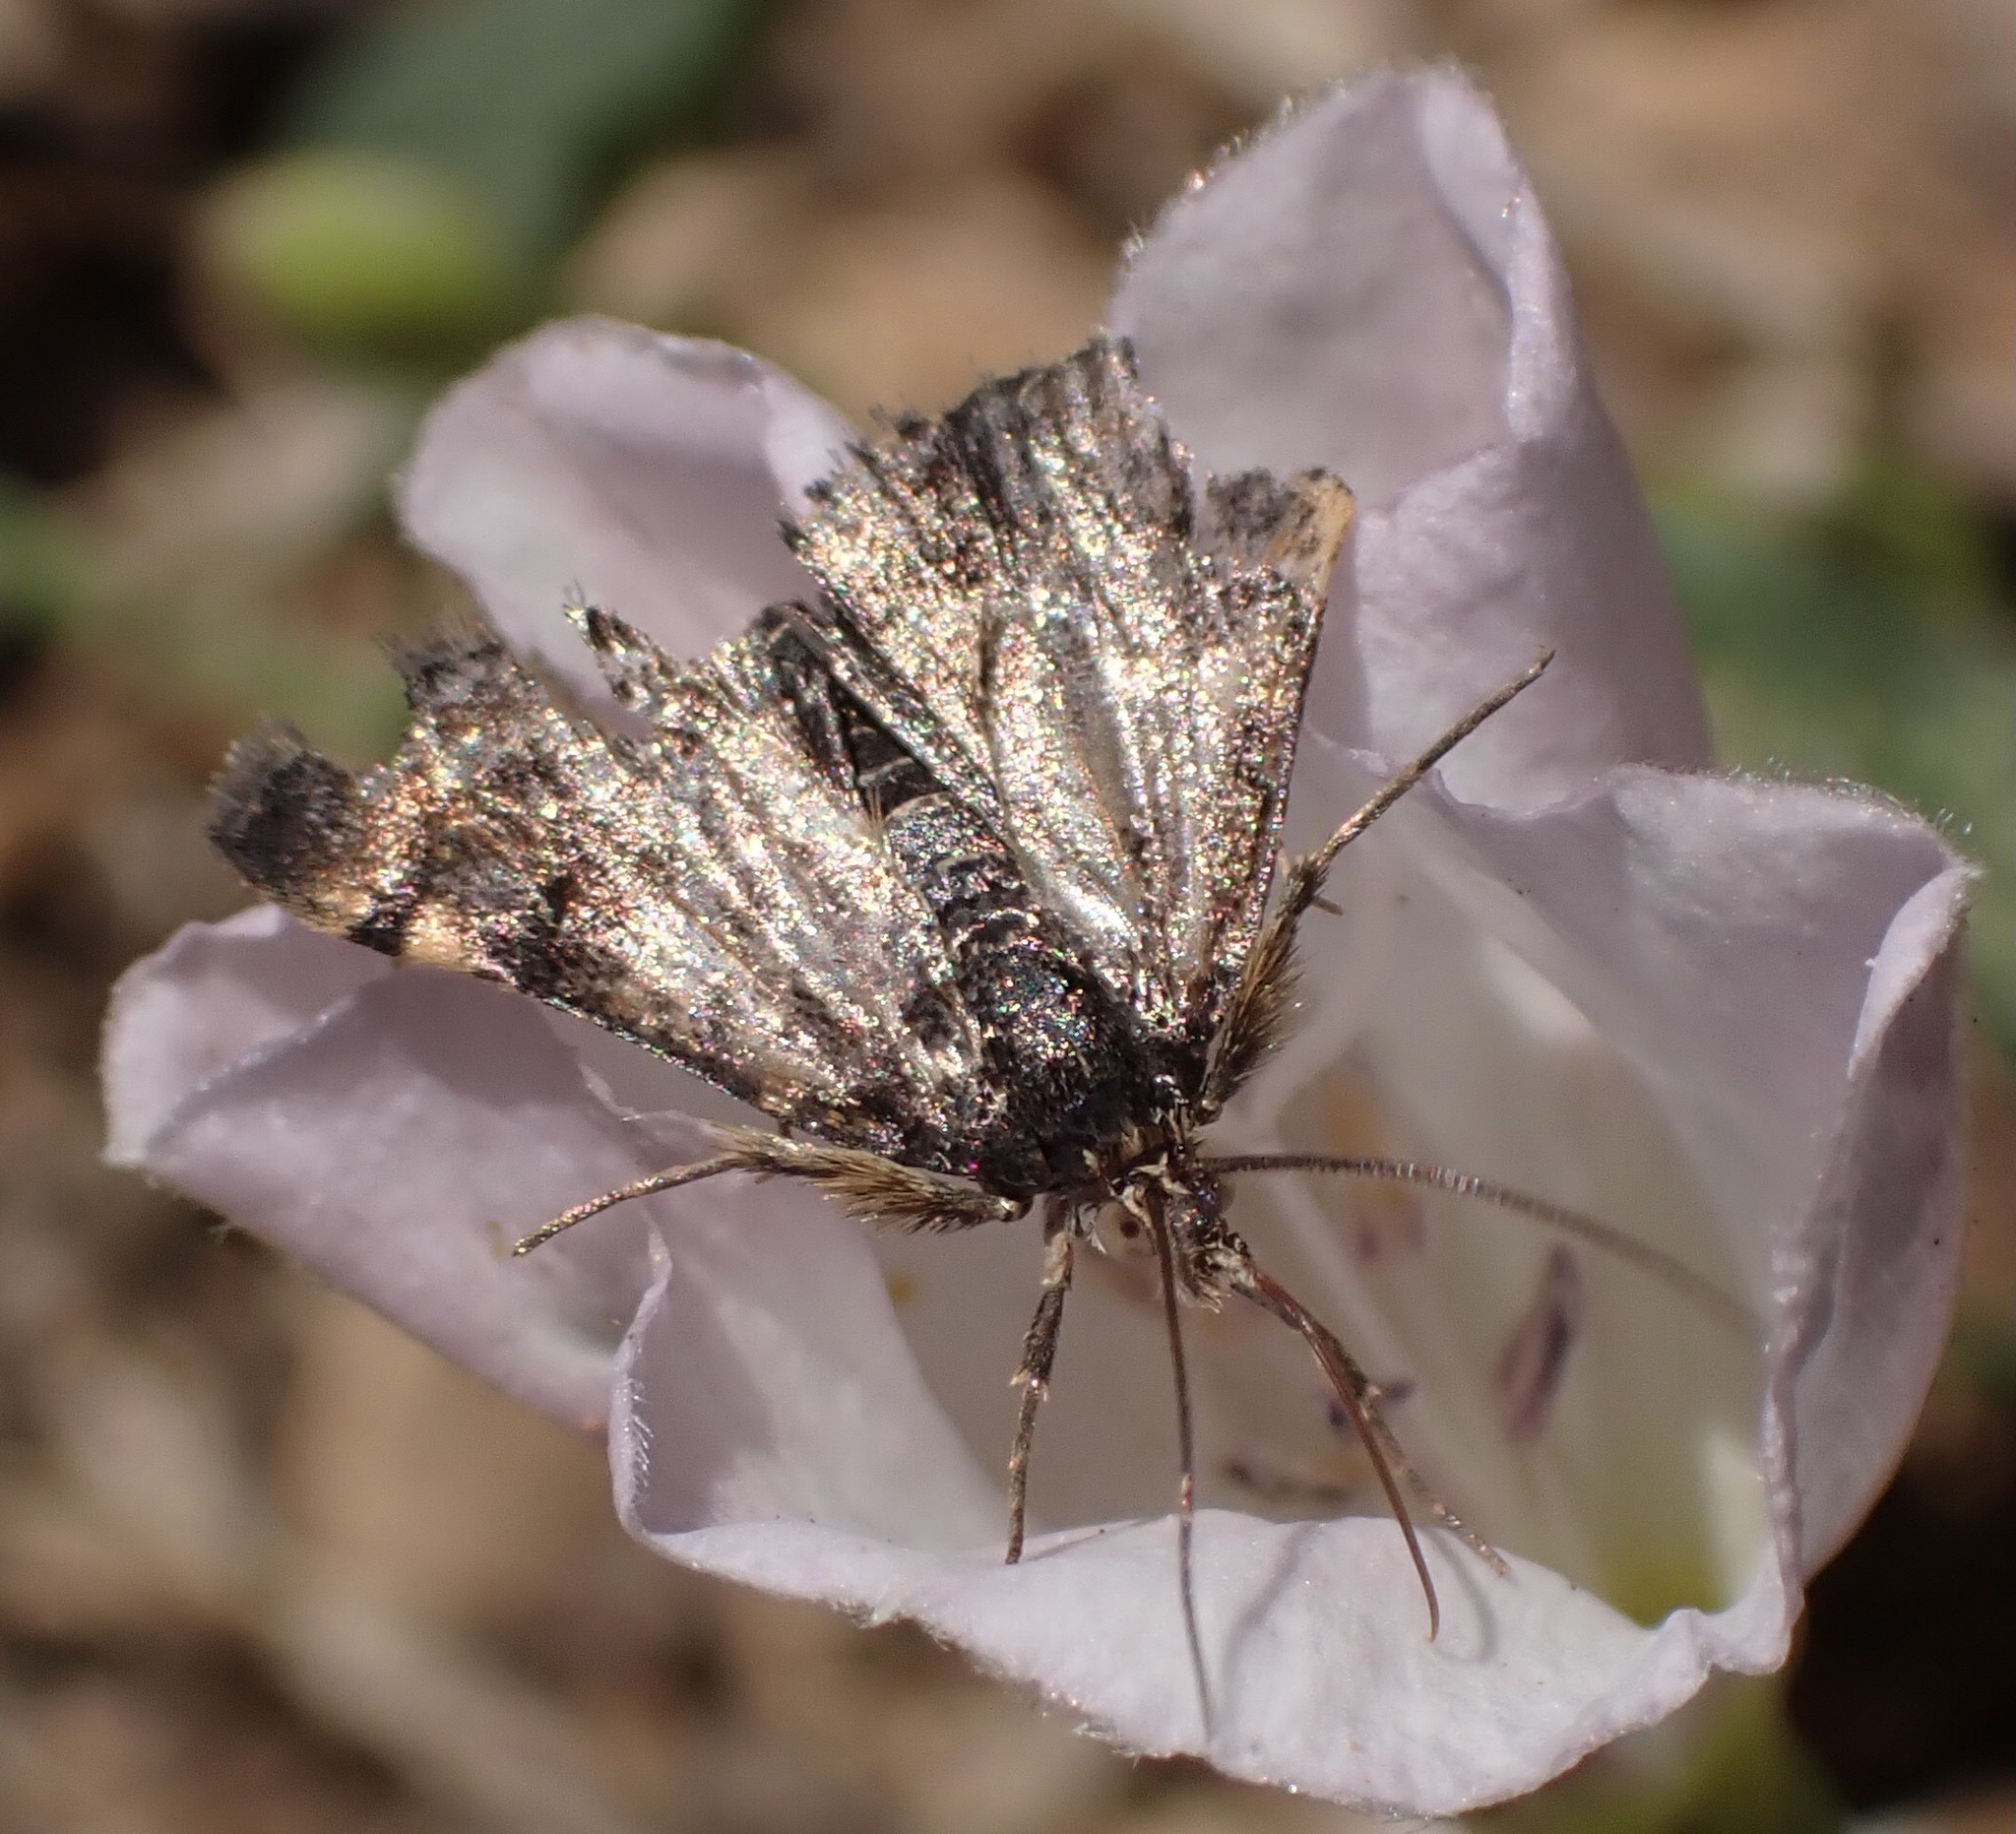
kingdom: Animalia
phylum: Arthropoda
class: Insecta
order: Lepidoptera
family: Crambidae
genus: Noctuelia
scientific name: Noctuelia Aporodes floralis
